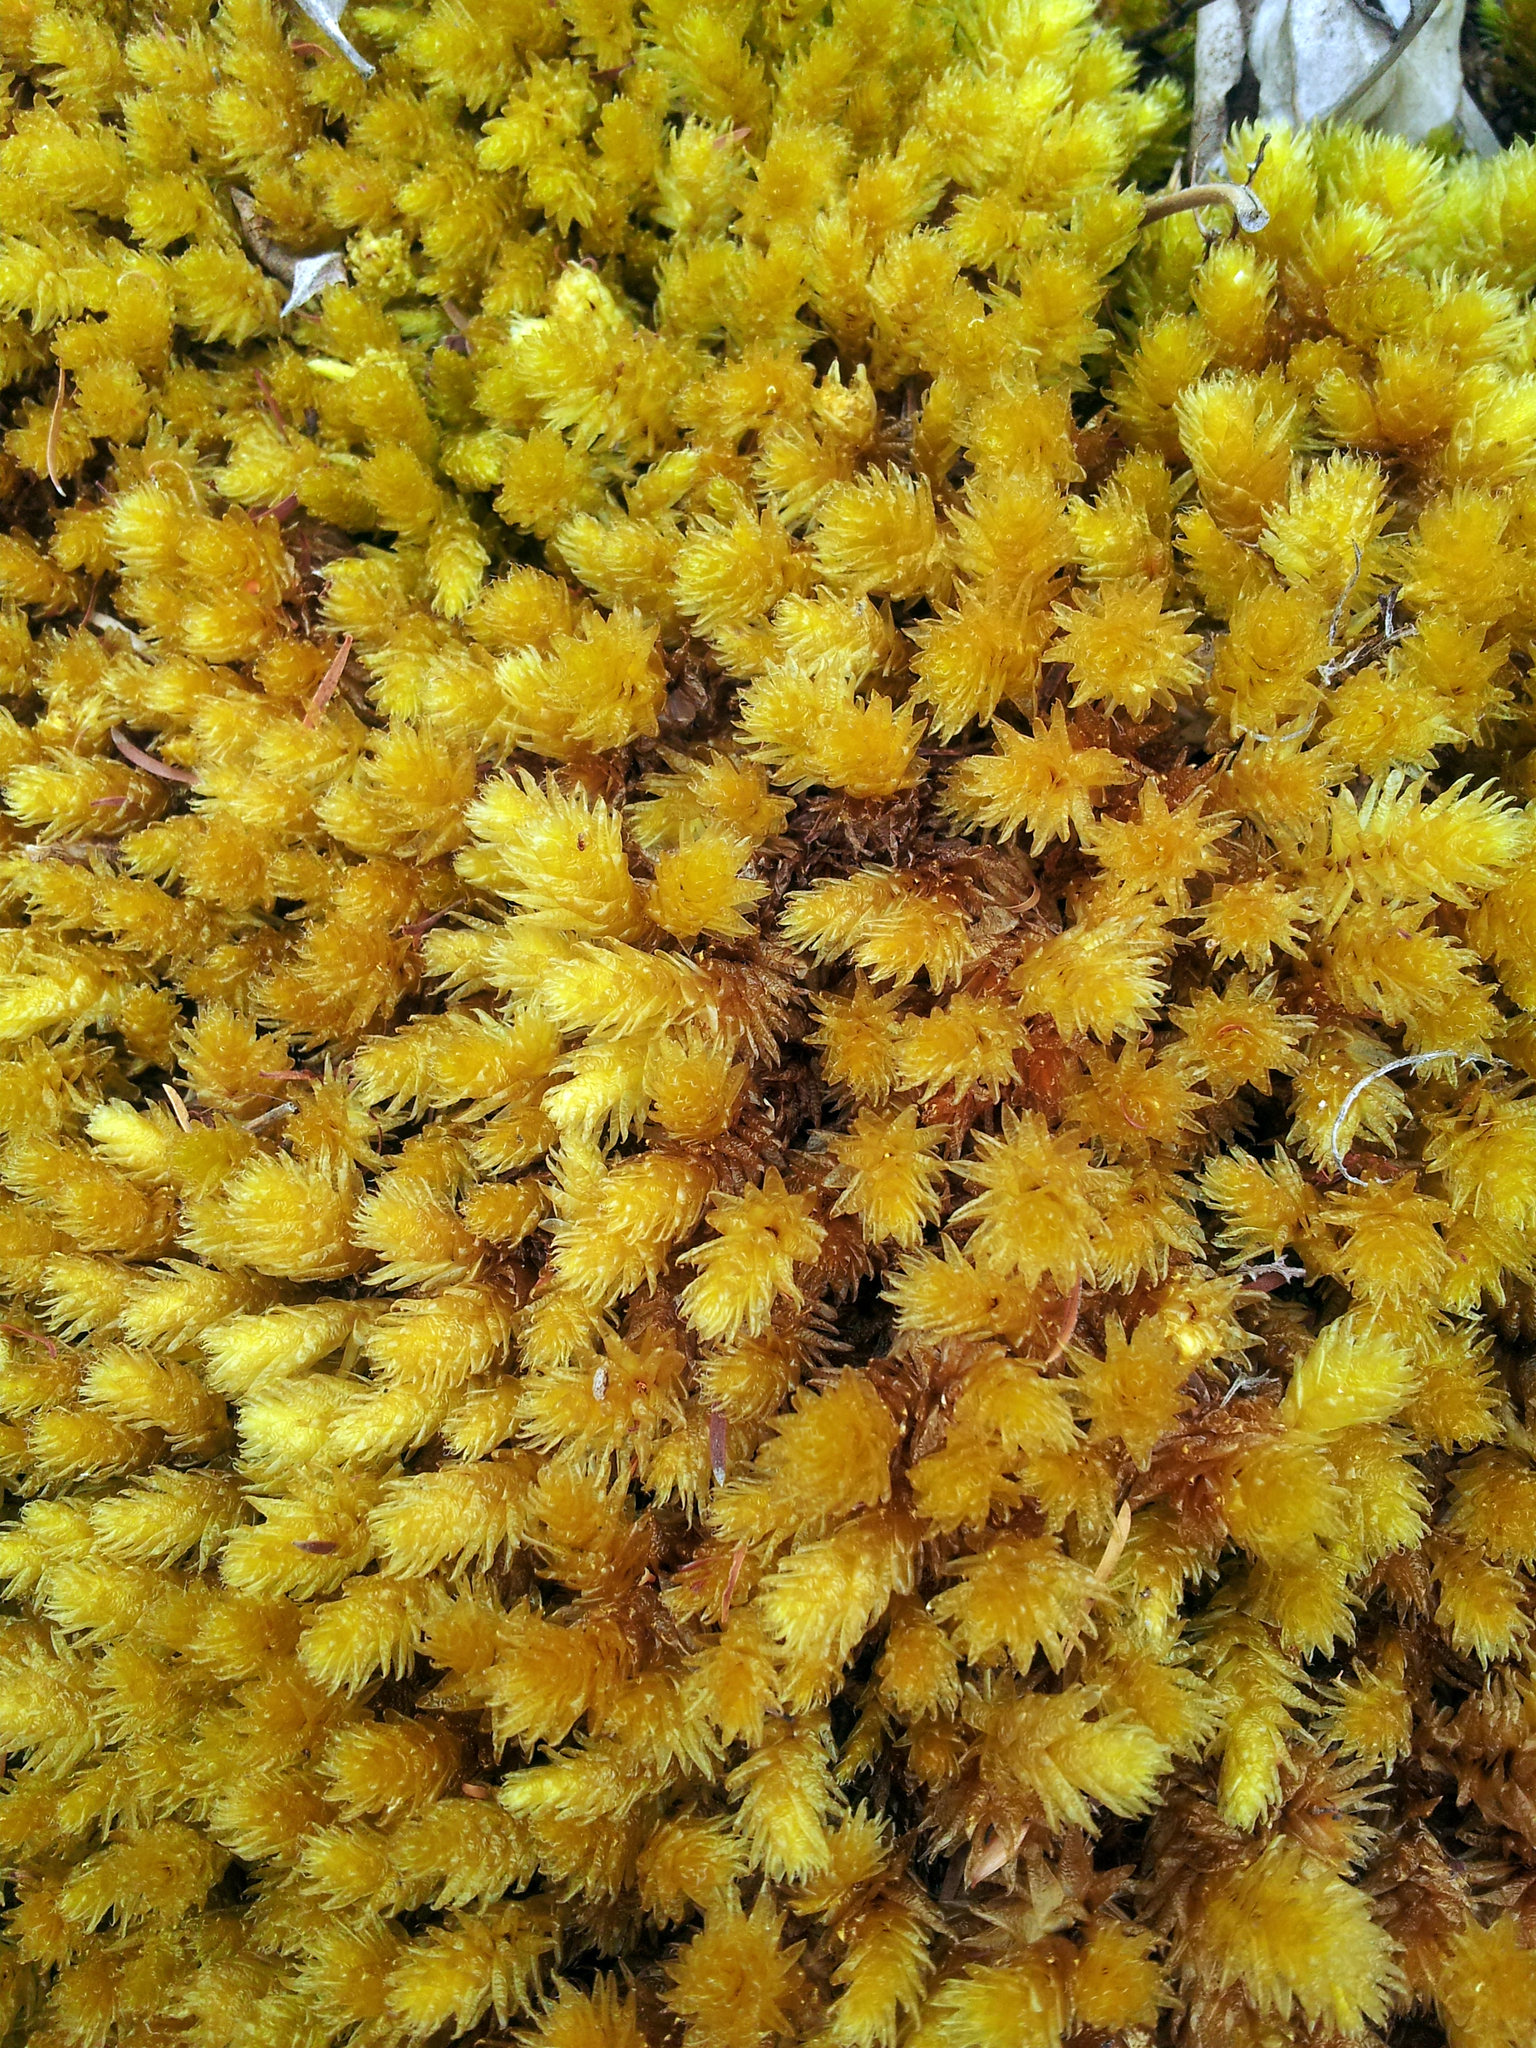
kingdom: Plantae
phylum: Bryophyta
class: Bryopsida
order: Bryales
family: Pulchrinodaceae
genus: Pulchrinodus
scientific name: Pulchrinodus inflatus
